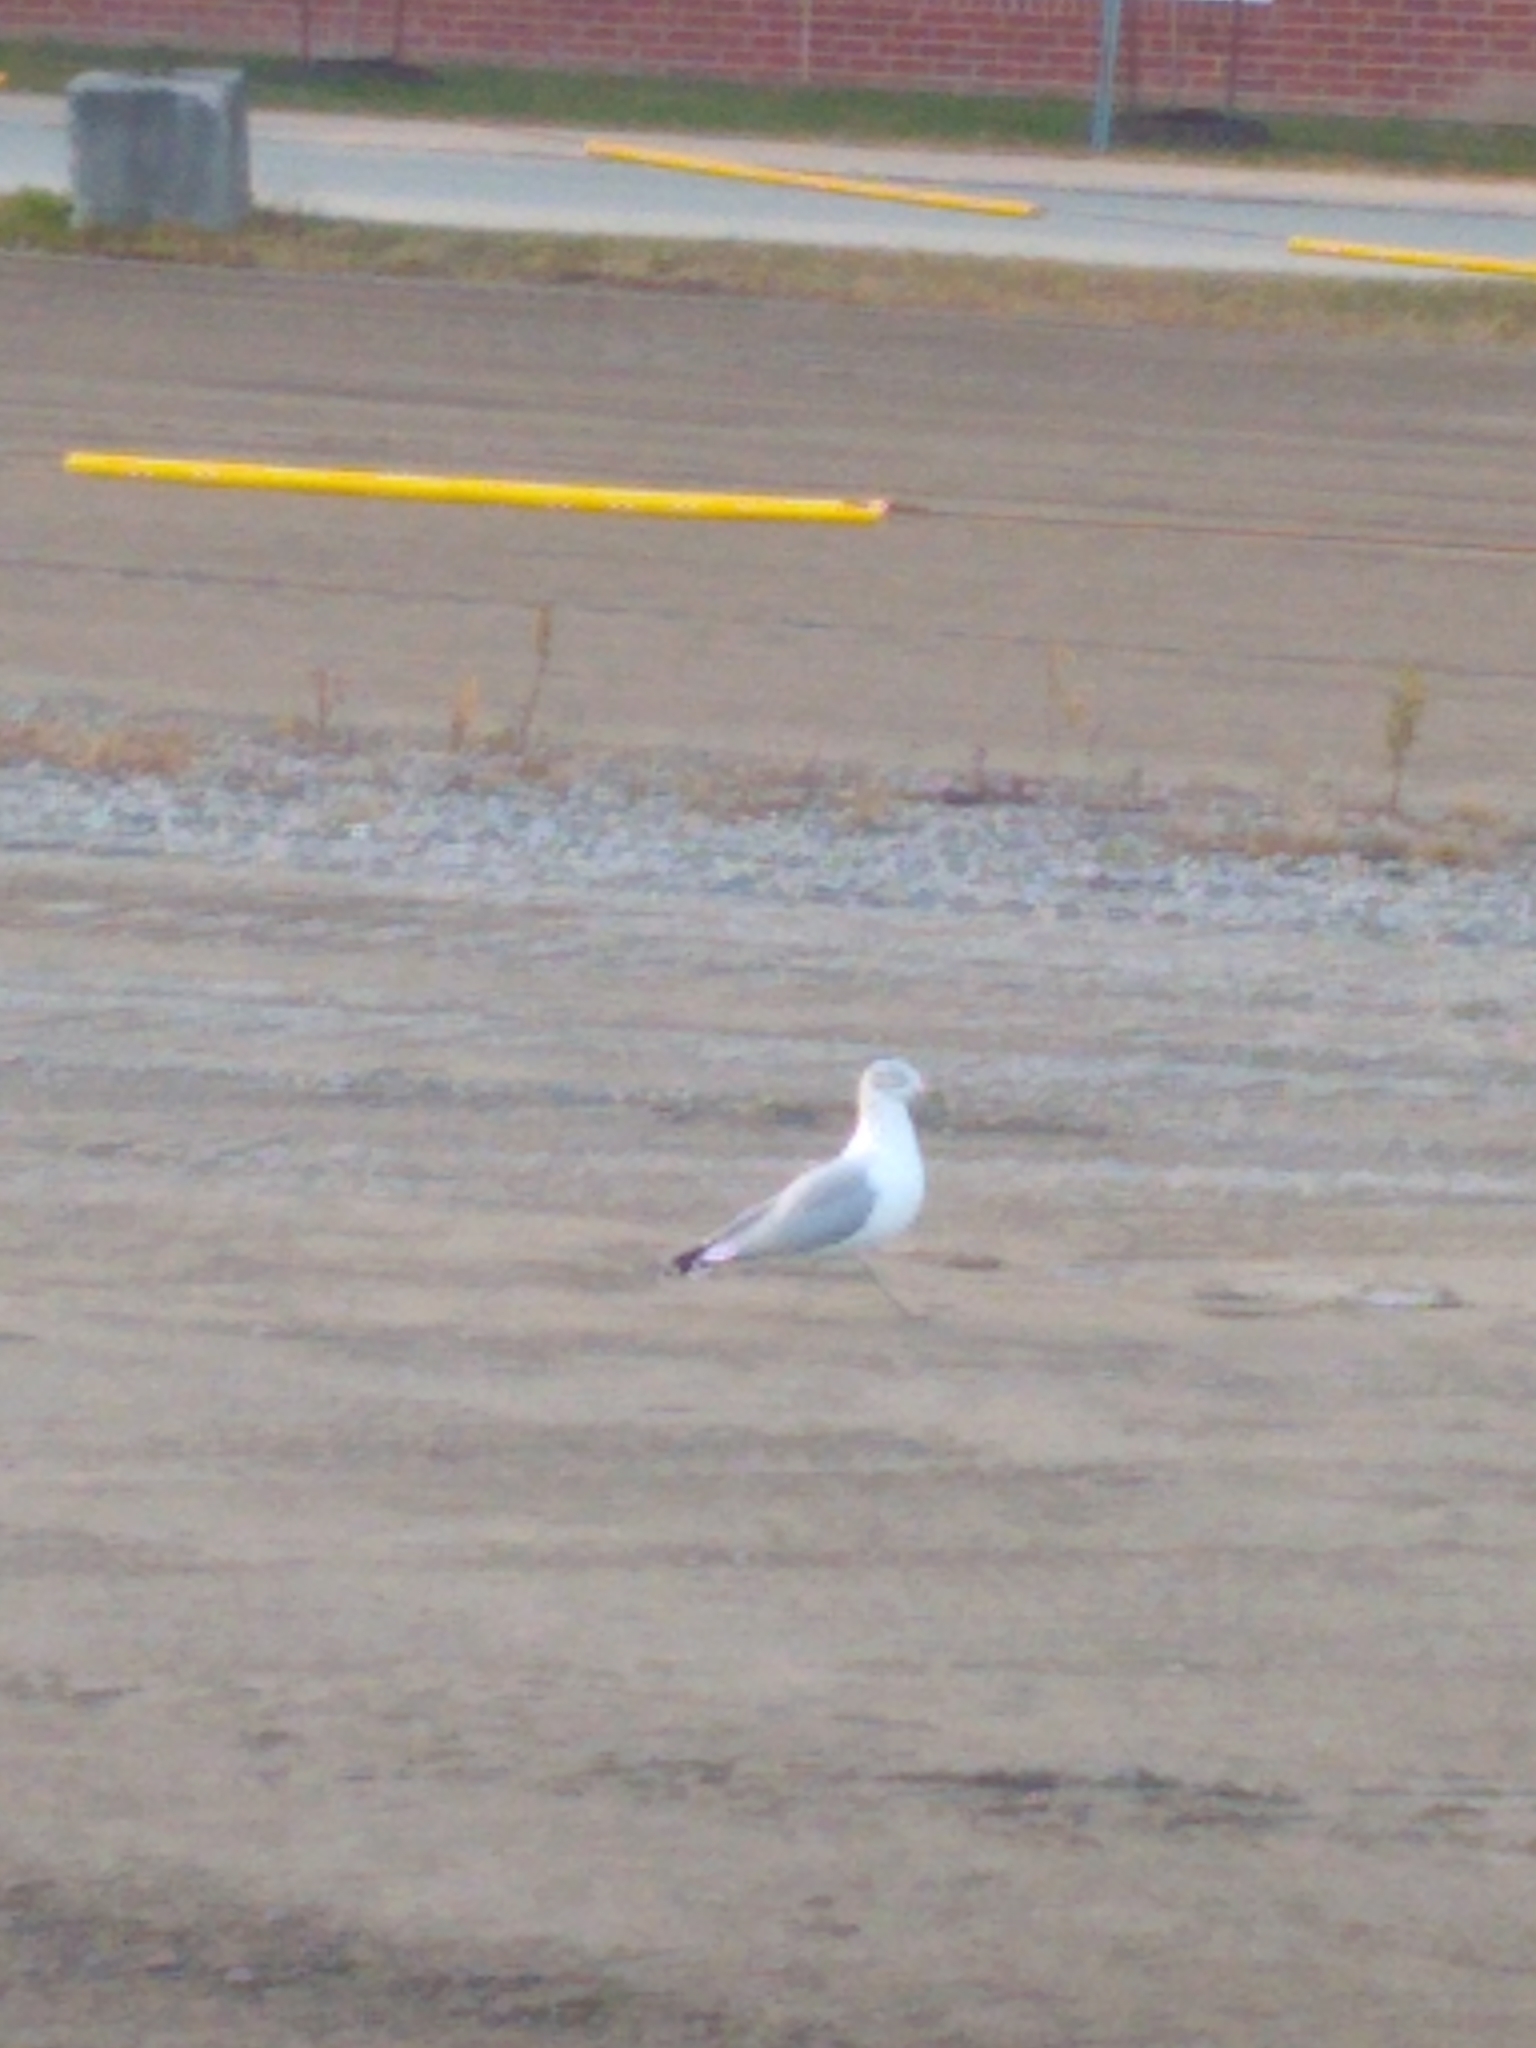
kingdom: Animalia
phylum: Chordata
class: Aves
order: Charadriiformes
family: Laridae
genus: Larus
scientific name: Larus delawarensis
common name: Ring-billed gull
